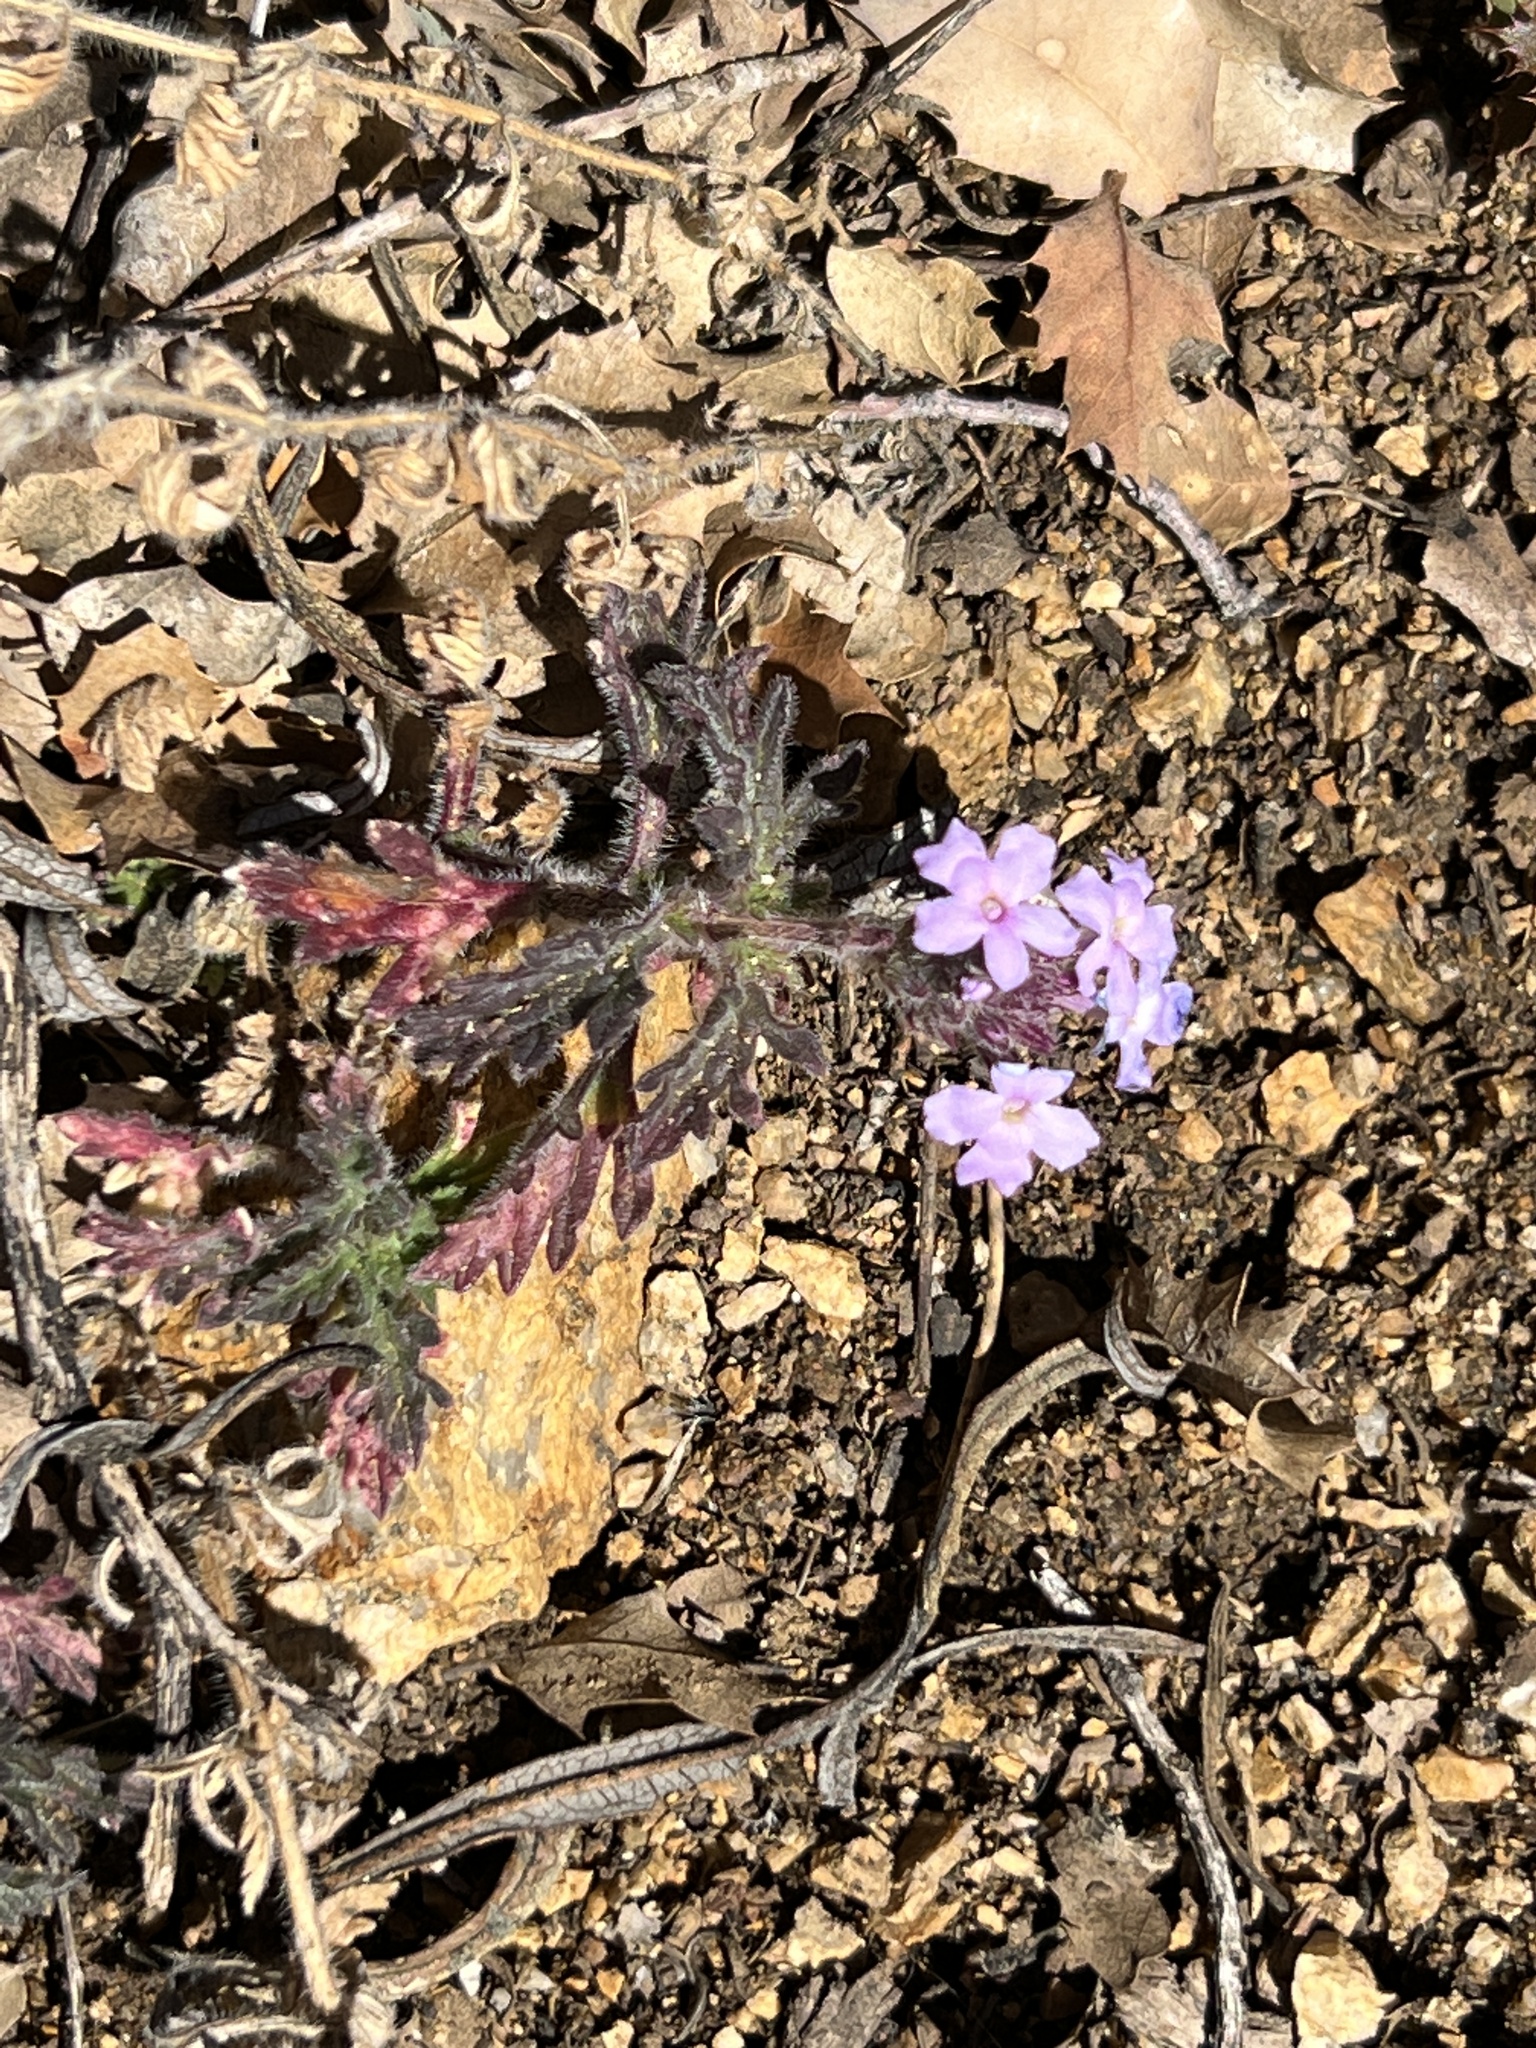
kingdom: Plantae
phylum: Tracheophyta
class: Magnoliopsida
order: Lamiales
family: Verbenaceae
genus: Verbena
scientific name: Verbena gooddingii
